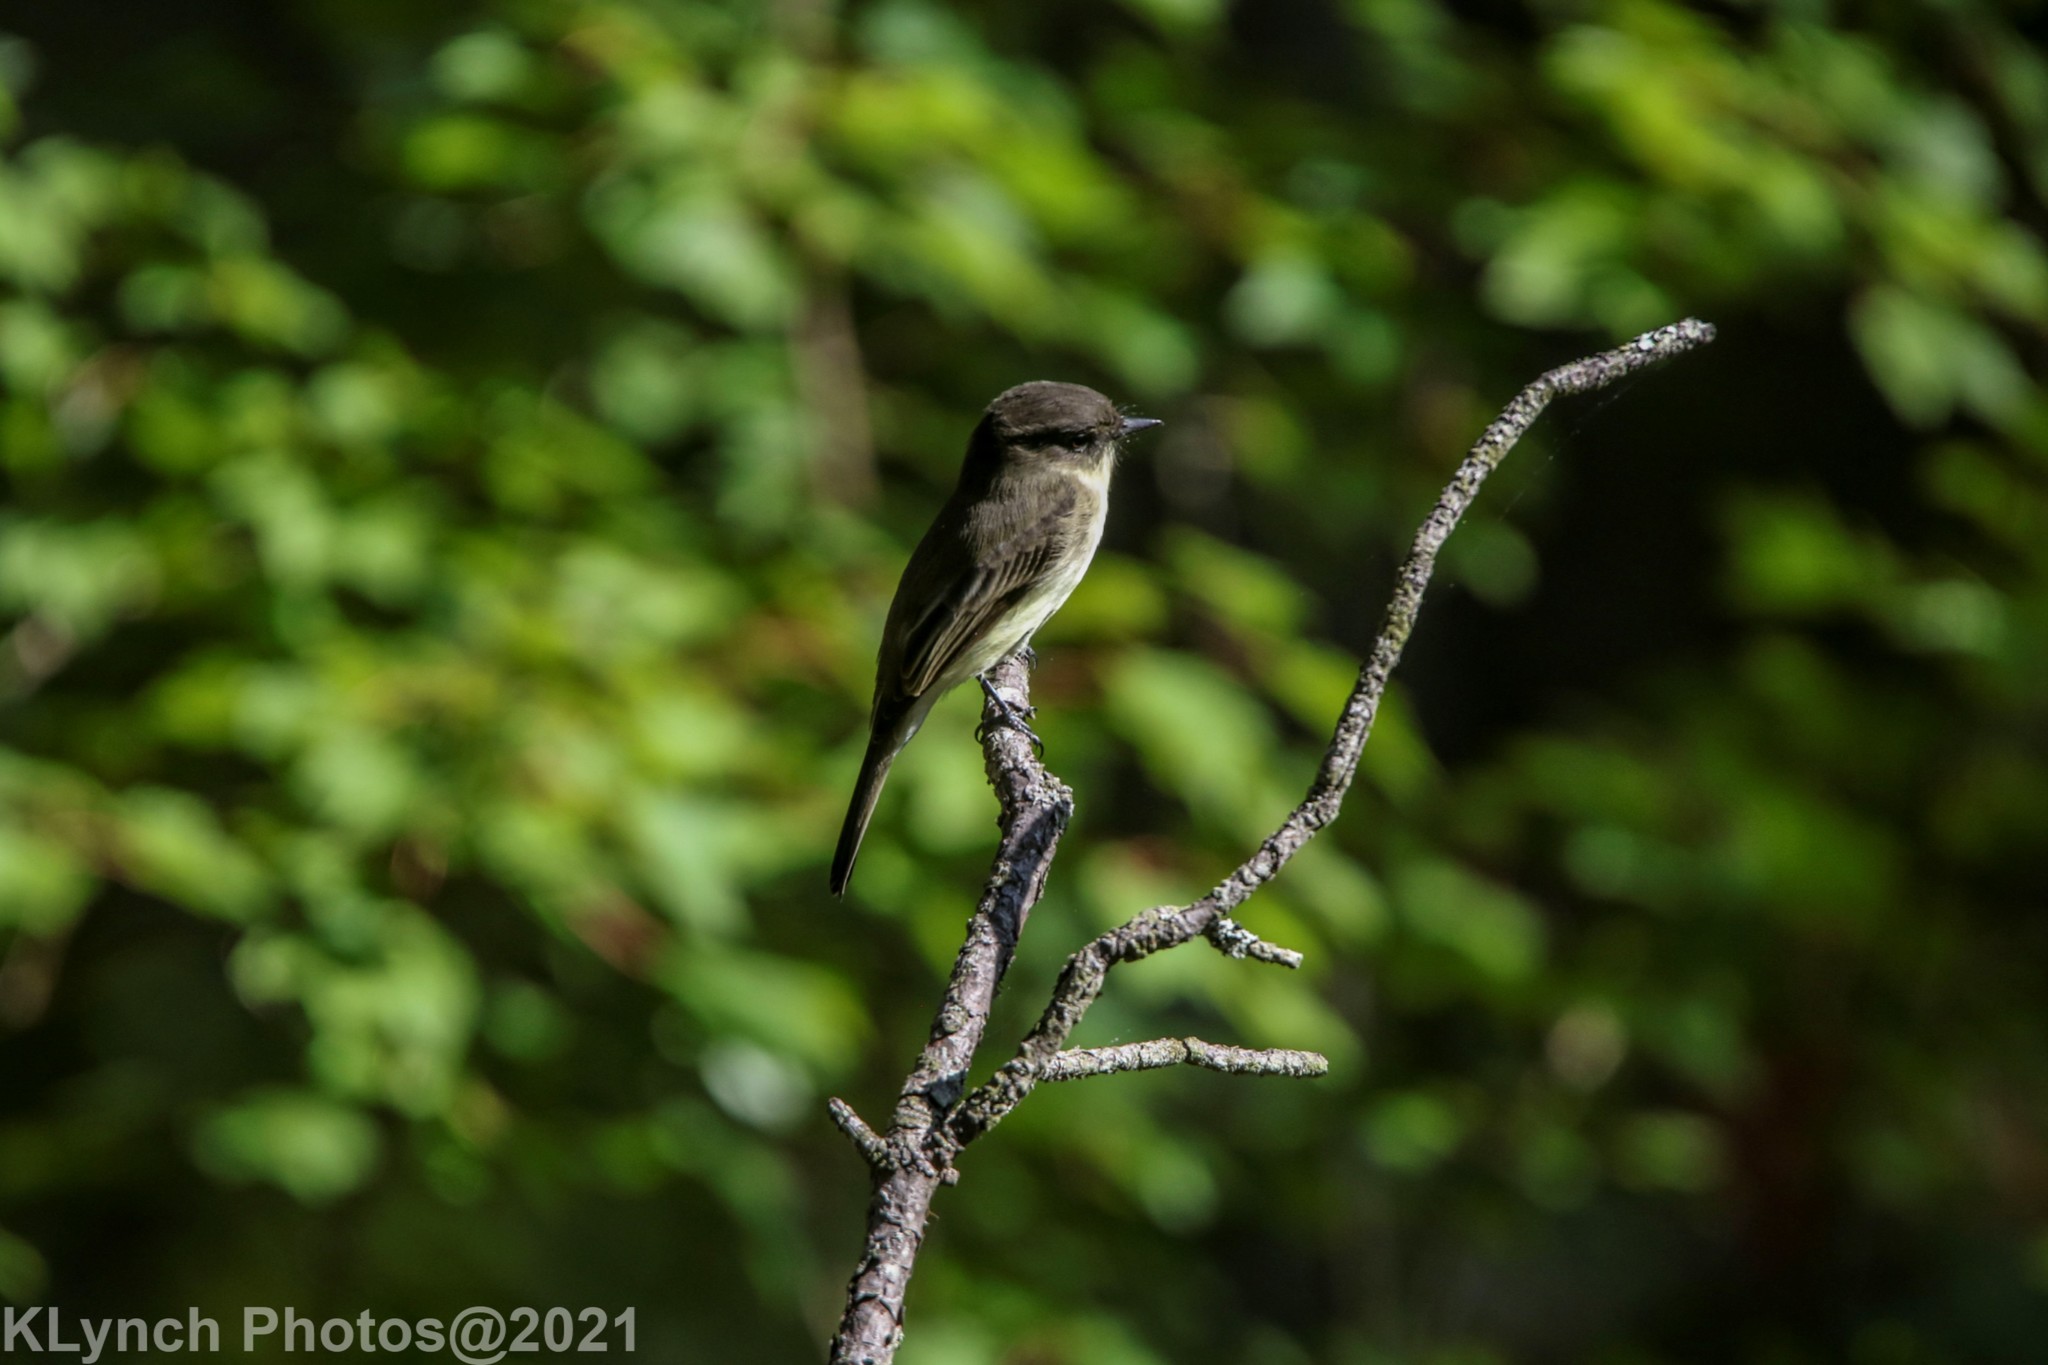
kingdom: Animalia
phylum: Chordata
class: Aves
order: Passeriformes
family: Tyrannidae
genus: Sayornis
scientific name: Sayornis phoebe
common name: Eastern phoebe
